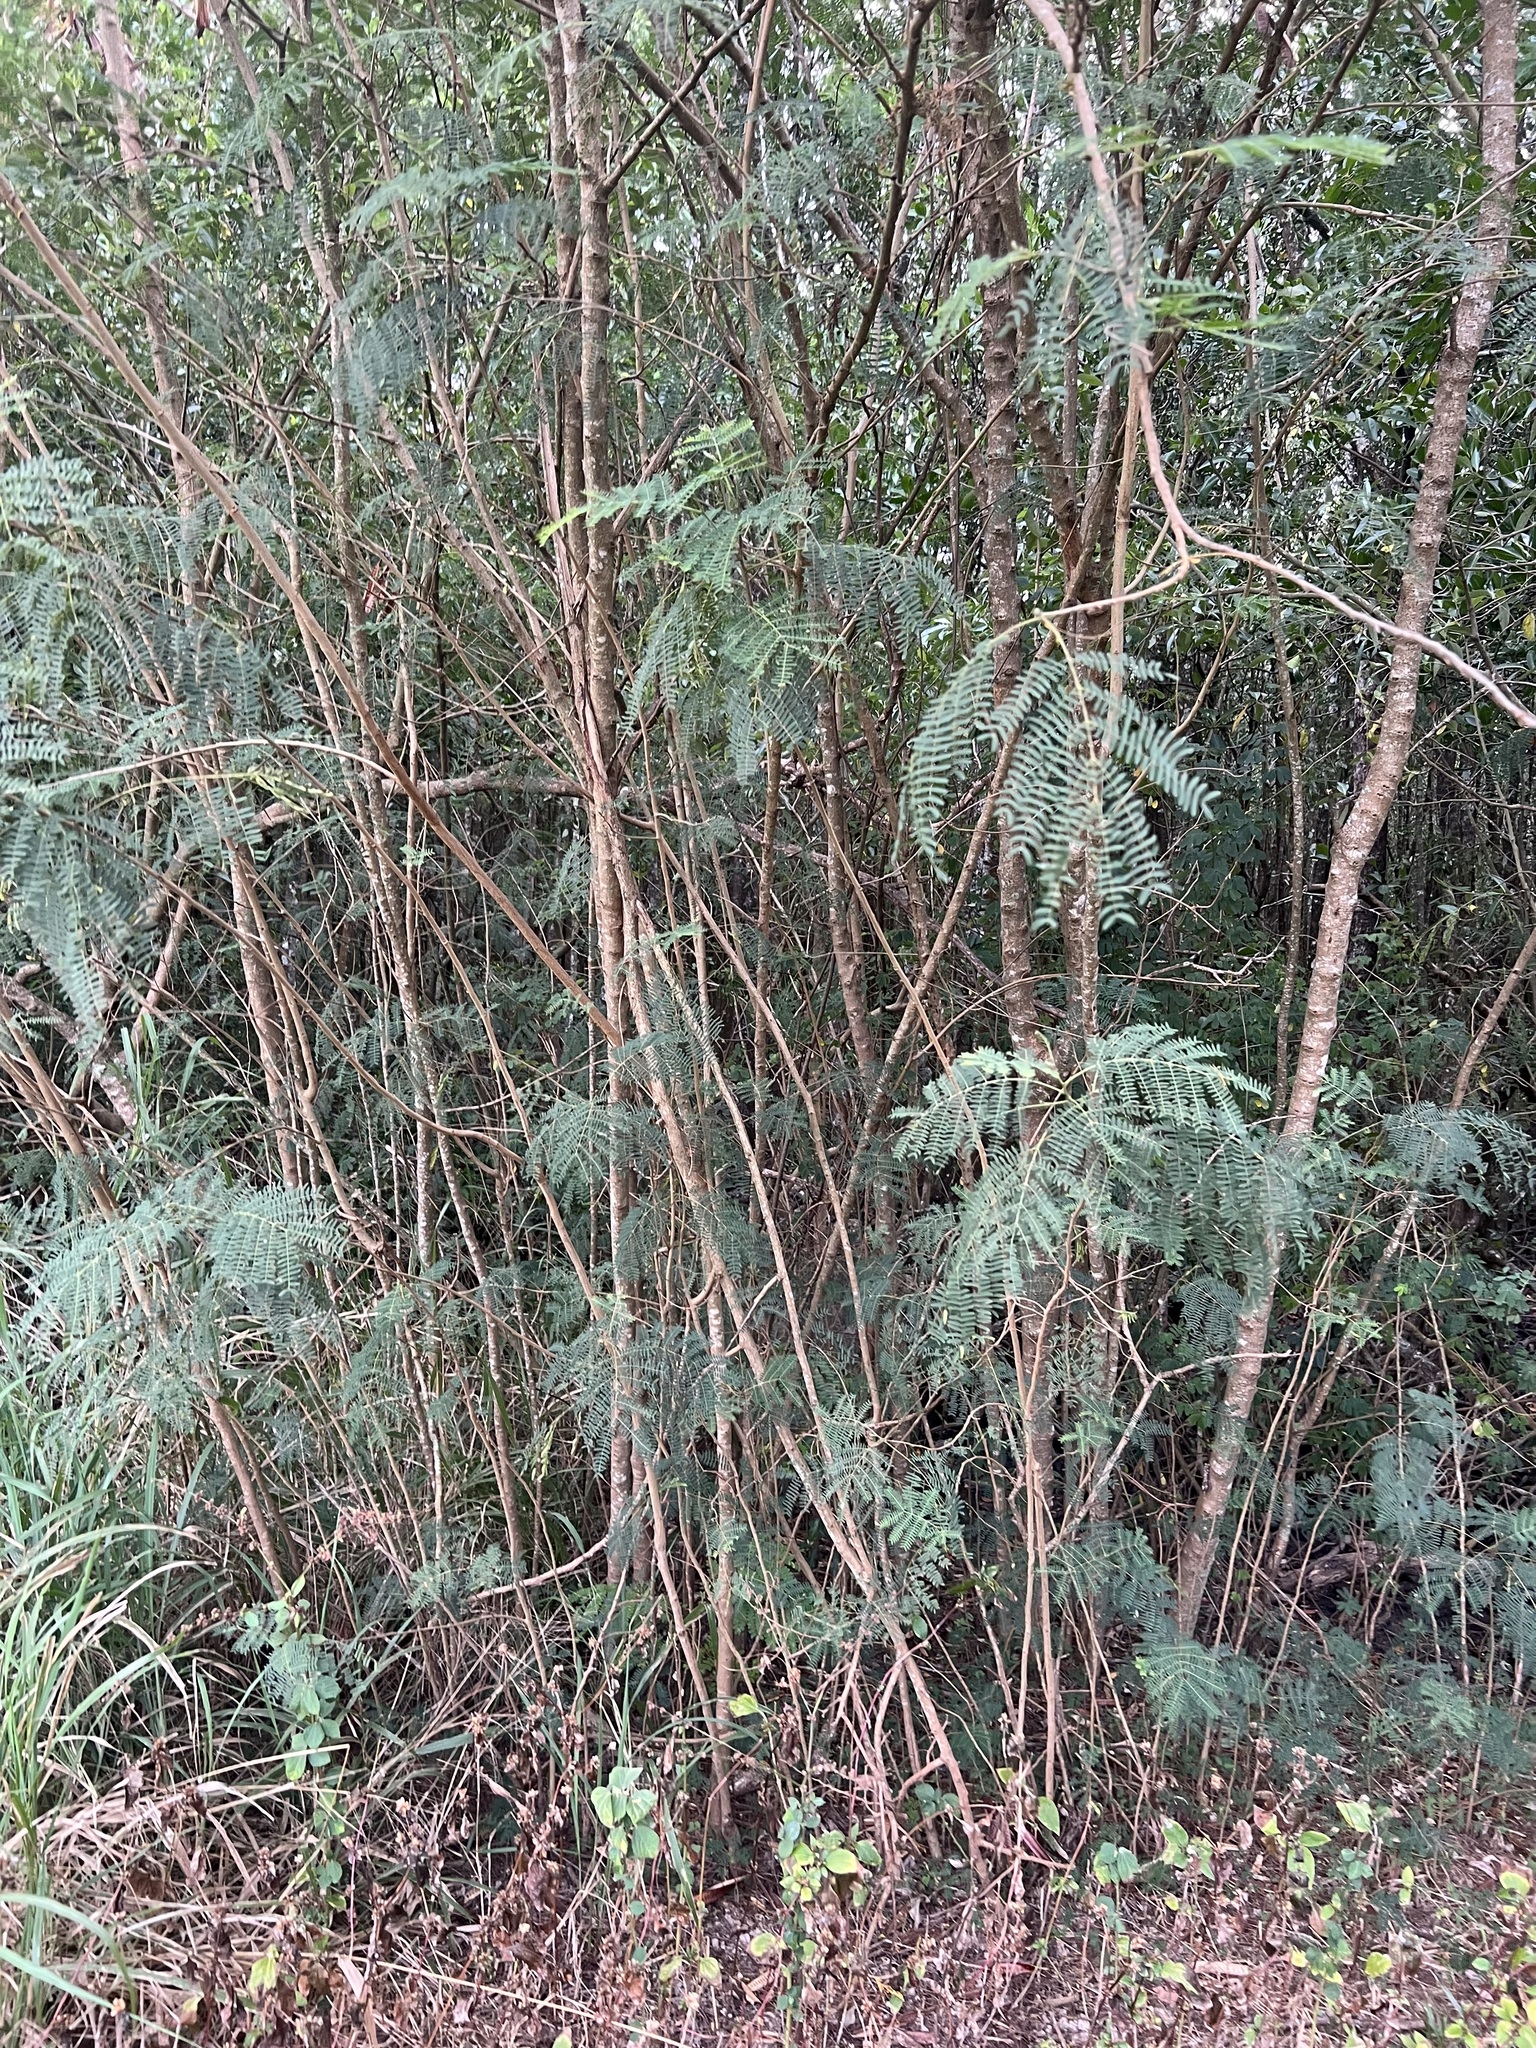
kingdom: Plantae
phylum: Tracheophyta
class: Magnoliopsida
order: Fabales
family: Fabaceae
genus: Leucaena
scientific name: Leucaena leucocephala
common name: White leadtree
